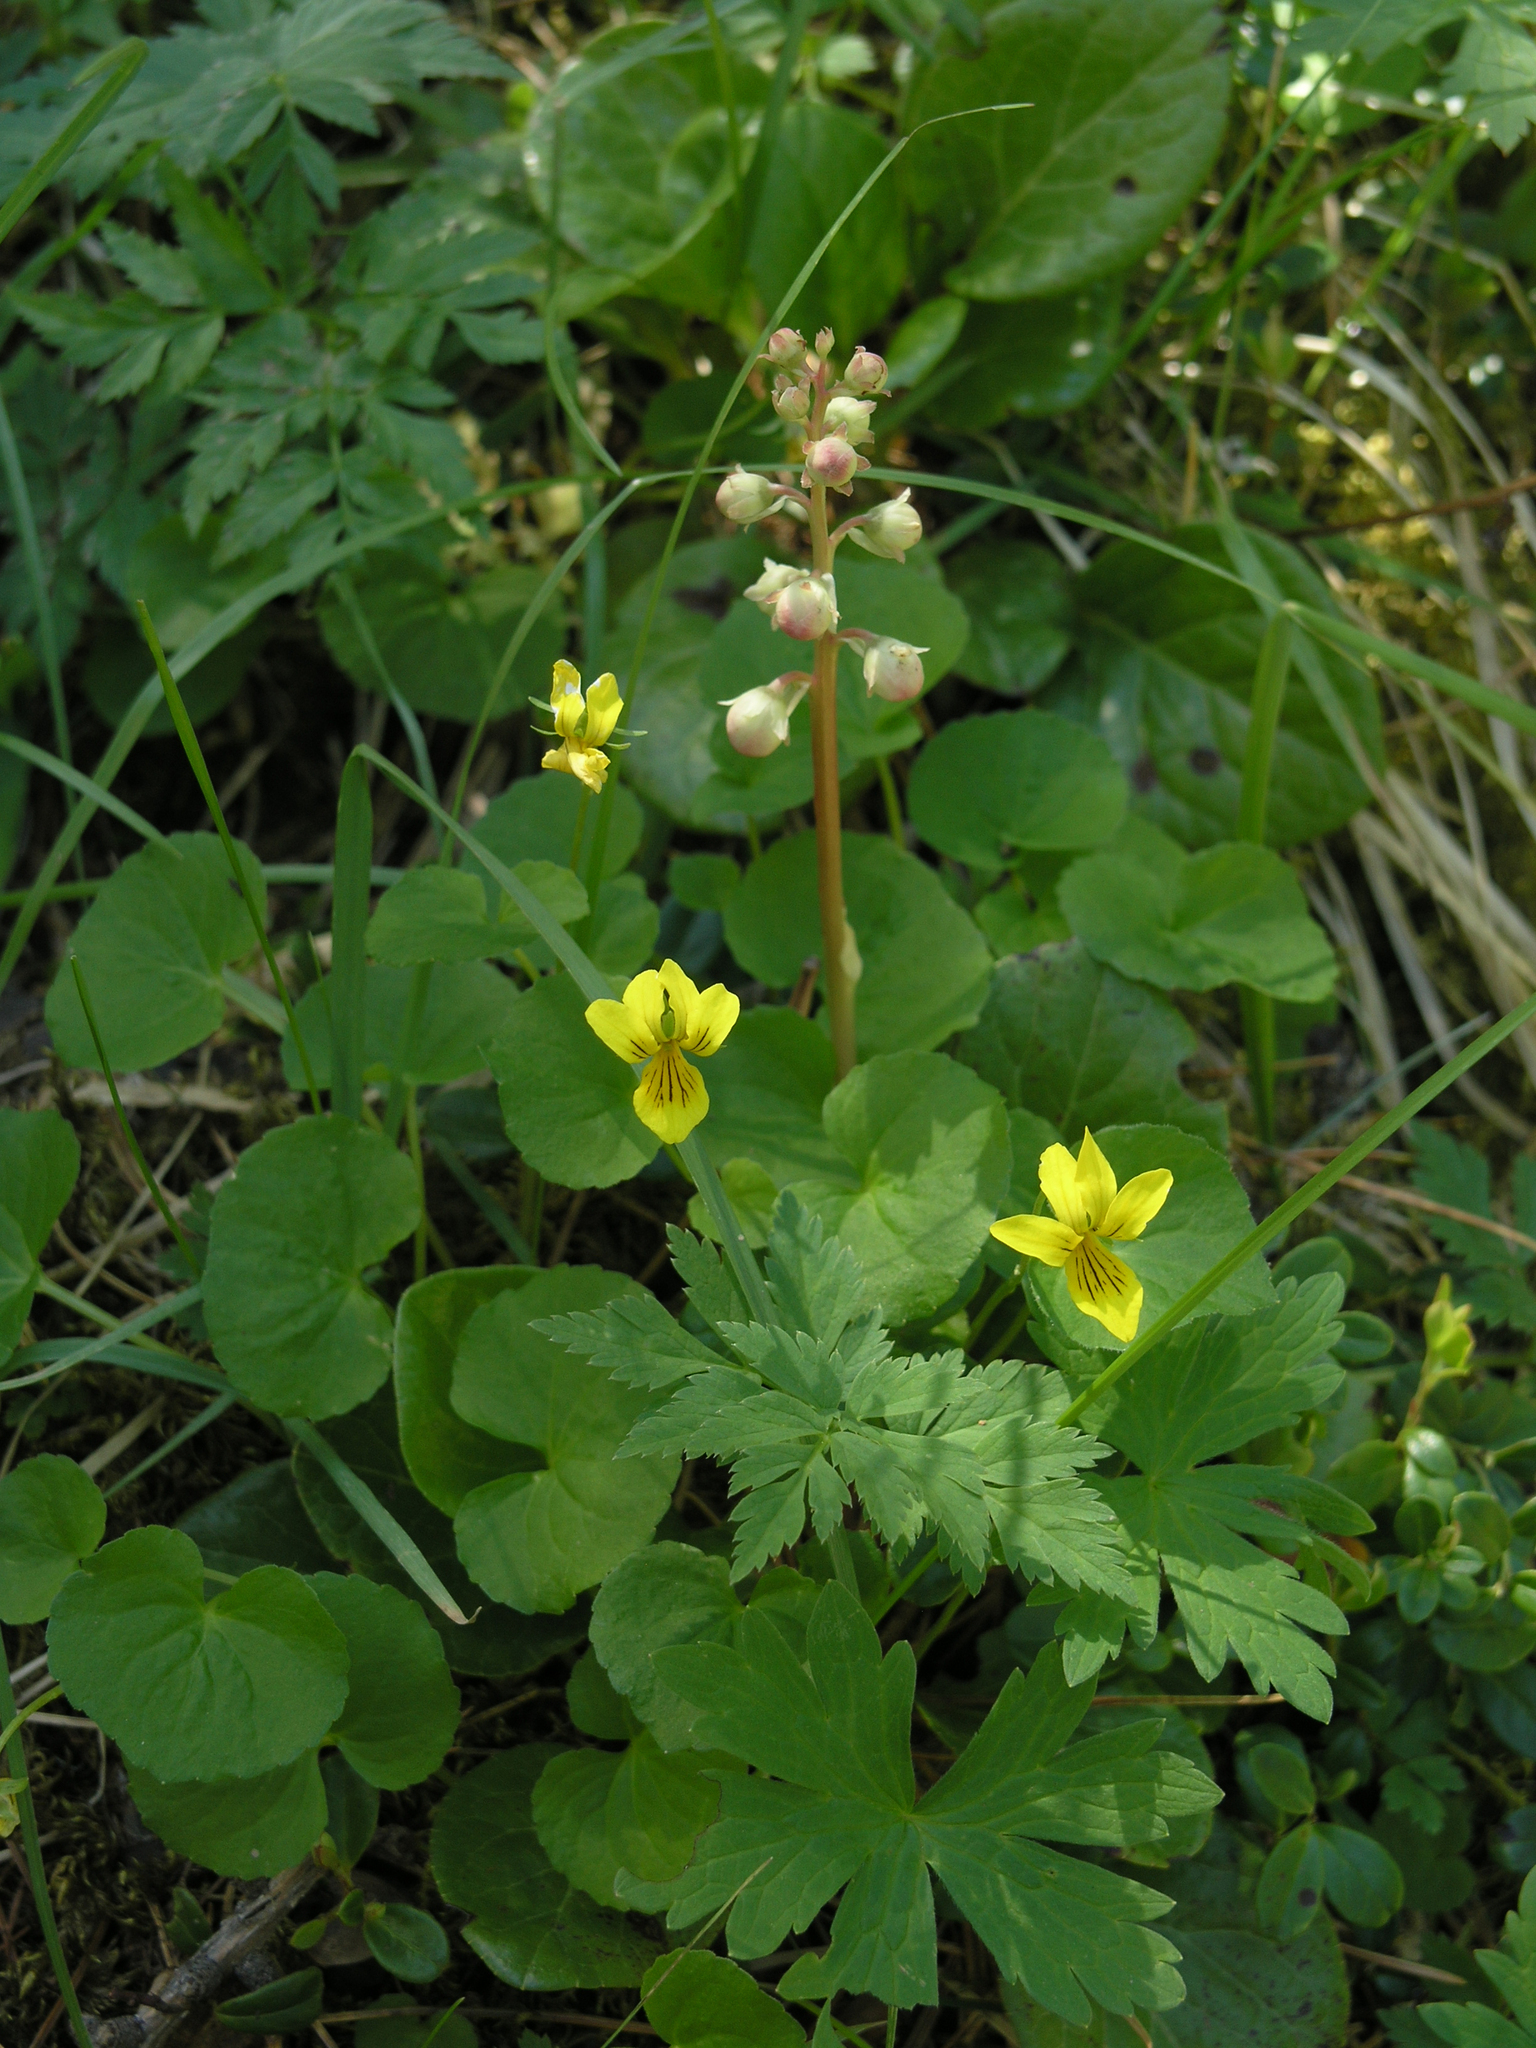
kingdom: Plantae
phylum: Tracheophyta
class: Magnoliopsida
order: Apiales
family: Apiaceae
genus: Aegopodium
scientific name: Aegopodium alpestre
